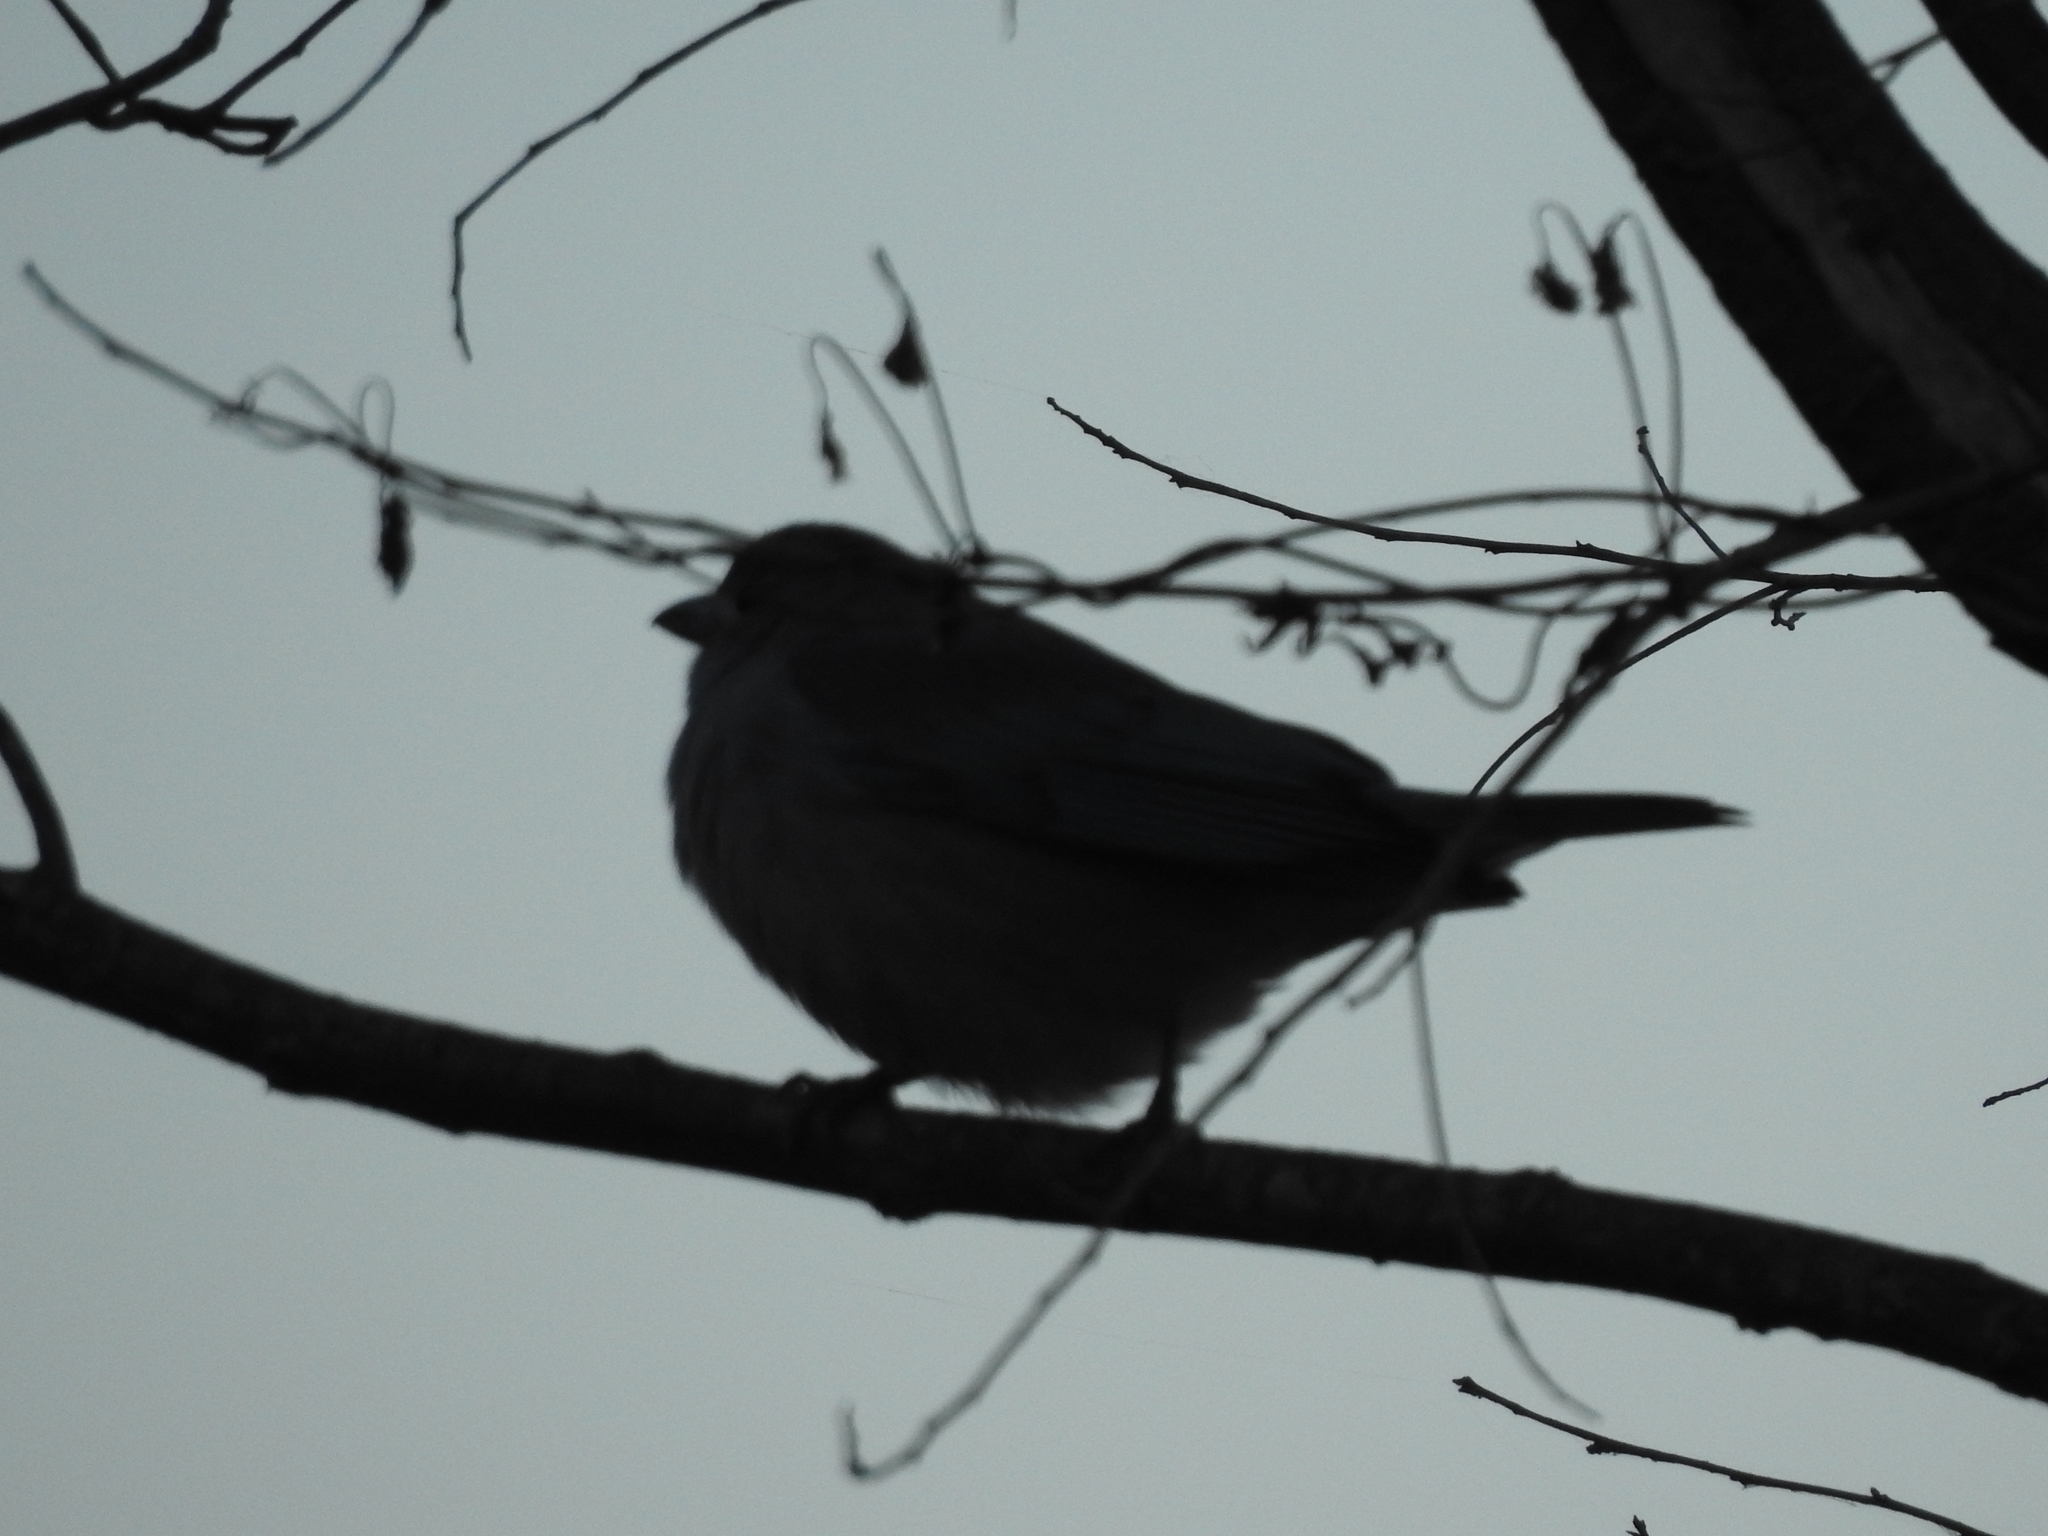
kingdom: Animalia
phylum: Chordata
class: Aves
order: Passeriformes
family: Thraupidae
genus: Thraupis
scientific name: Thraupis sayaca
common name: Sayaca tanager
